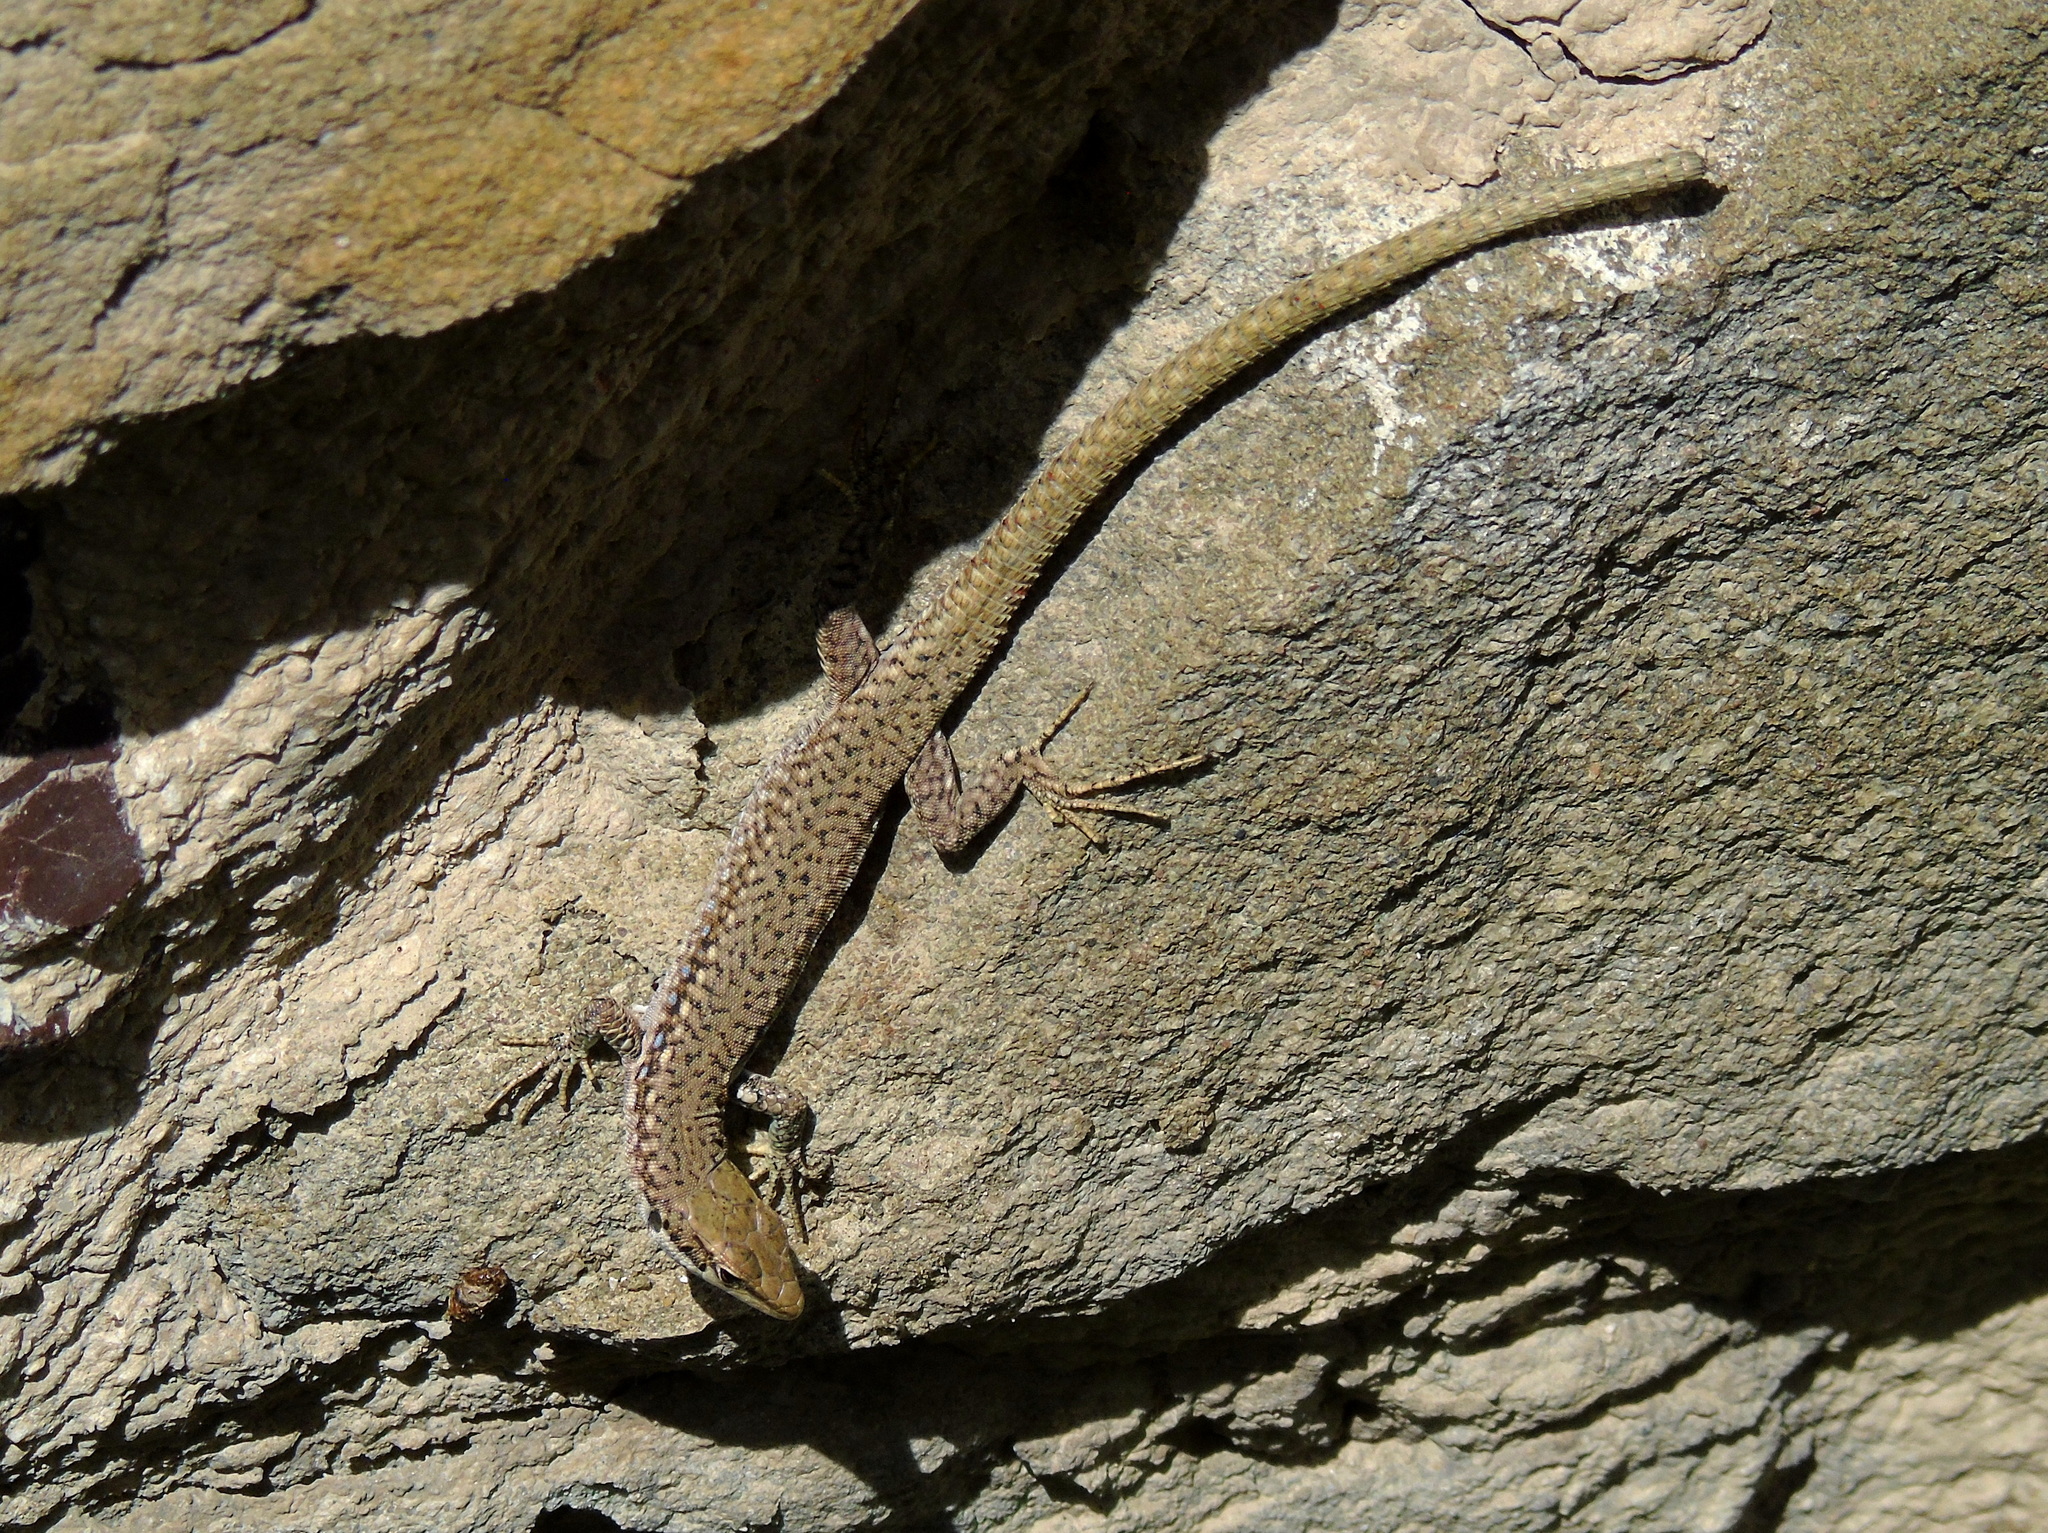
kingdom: Animalia
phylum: Chordata
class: Squamata
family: Lacertidae
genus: Darevskia
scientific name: Darevskia raddei
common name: Radde's lizard
